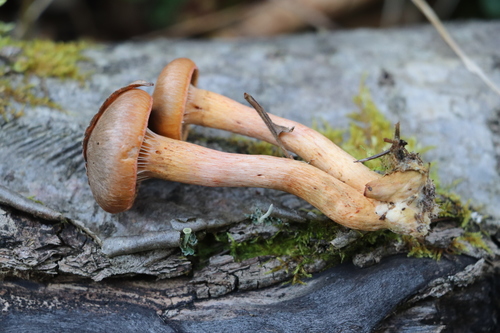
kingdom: Fungi
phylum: Basidiomycota
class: Agaricomycetes
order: Boletales
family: Gomphidiaceae
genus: Chroogomphus
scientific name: Chroogomphus rutilus
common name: Copper spike
